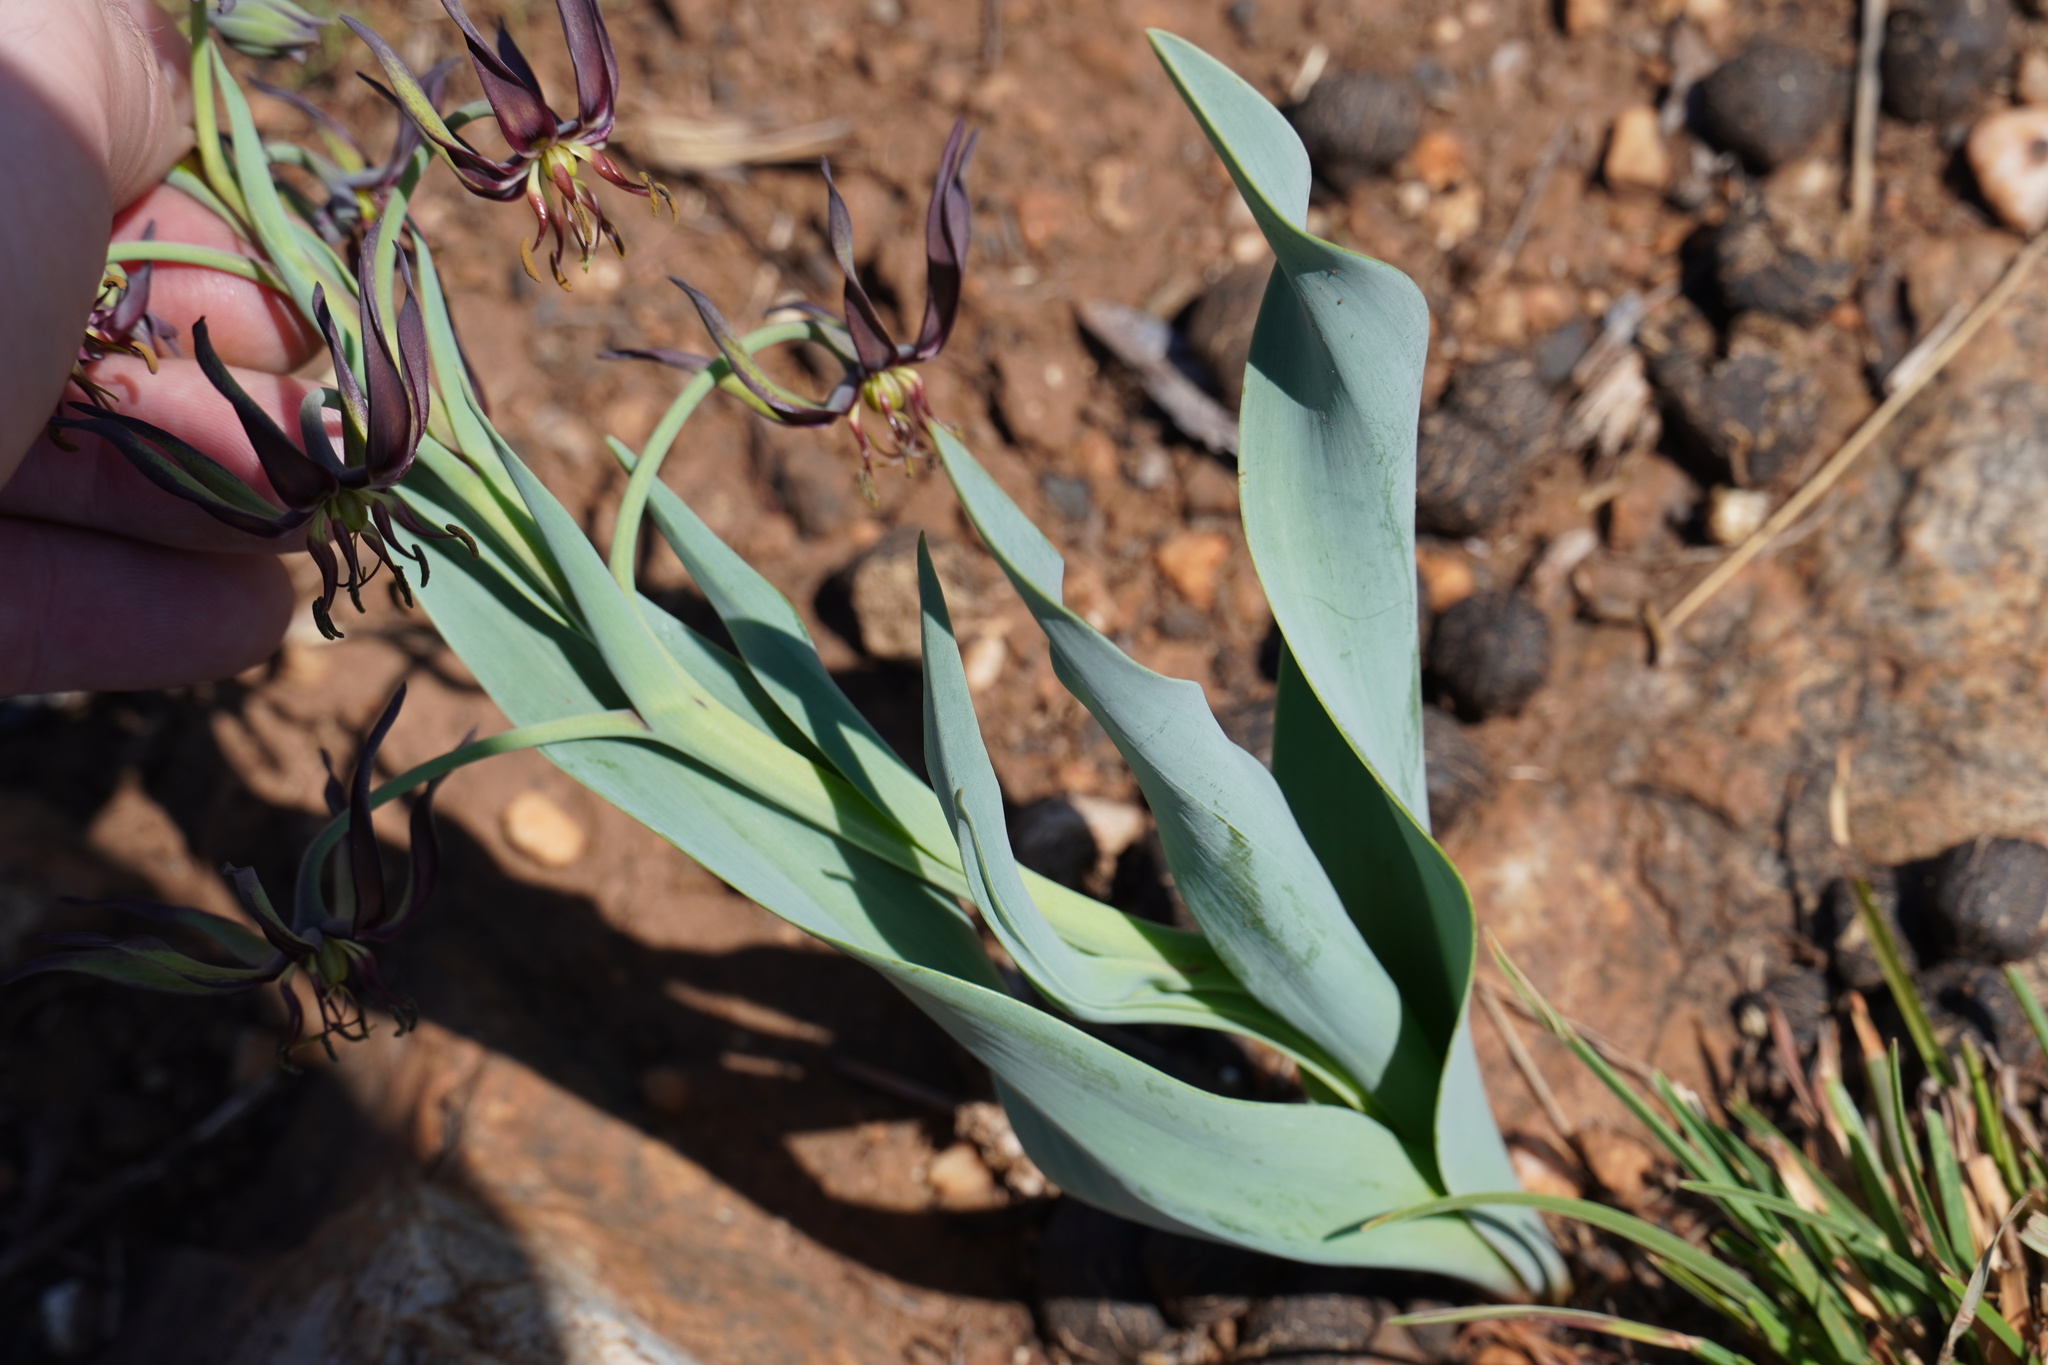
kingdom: Plantae
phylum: Tracheophyta
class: Liliopsida
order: Liliales
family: Colchicaceae
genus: Ornithoglossum
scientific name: Ornithoglossum vulgare
